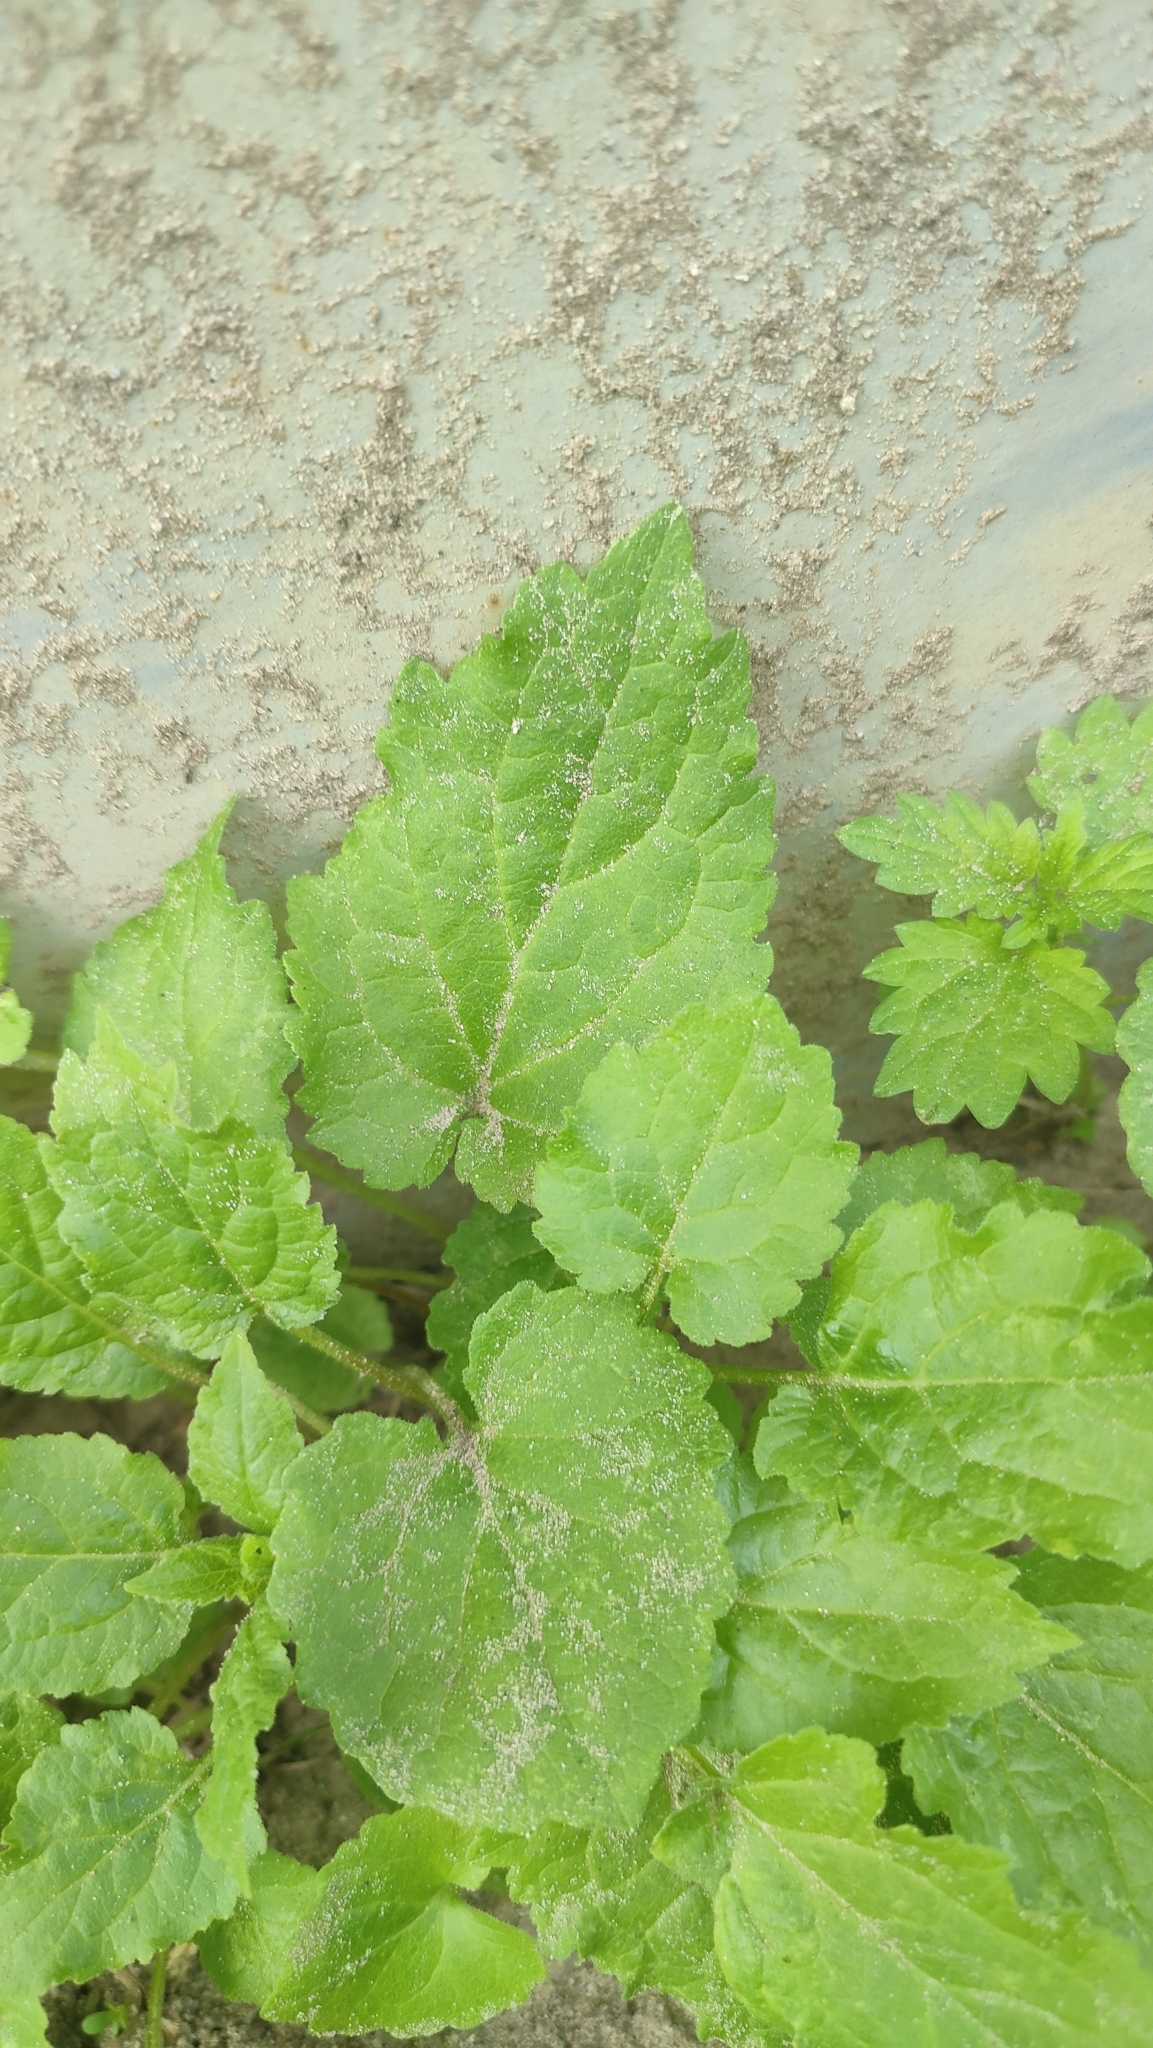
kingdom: Plantae
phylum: Tracheophyta
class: Magnoliopsida
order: Asterales
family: Campanulaceae
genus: Campanula
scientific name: Campanula rapunculoides
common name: Creeping bellflower
